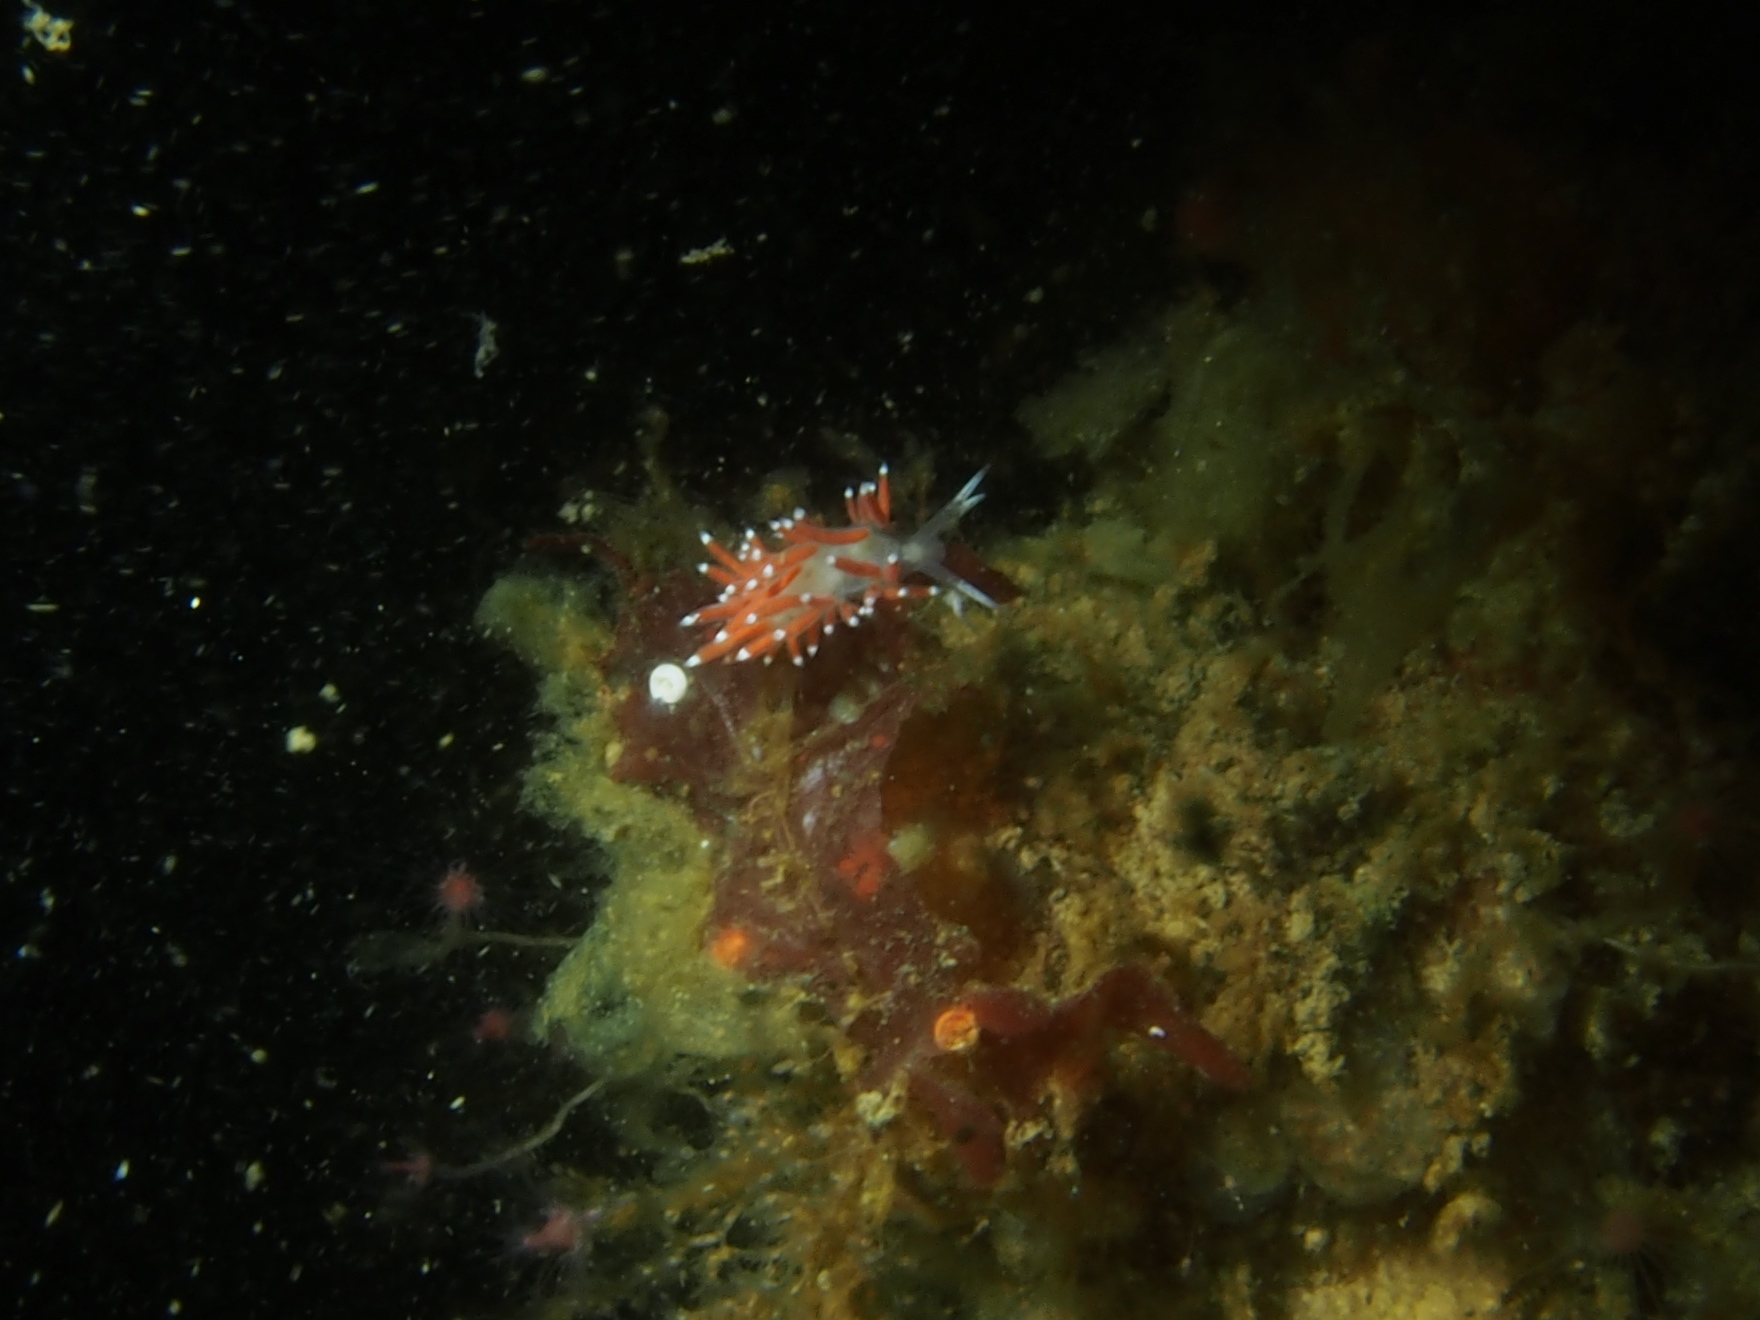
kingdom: Animalia
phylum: Mollusca
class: Gastropoda
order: Nudibranchia
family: Coryphellidae
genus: Coryphella
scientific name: Coryphella gracilis
